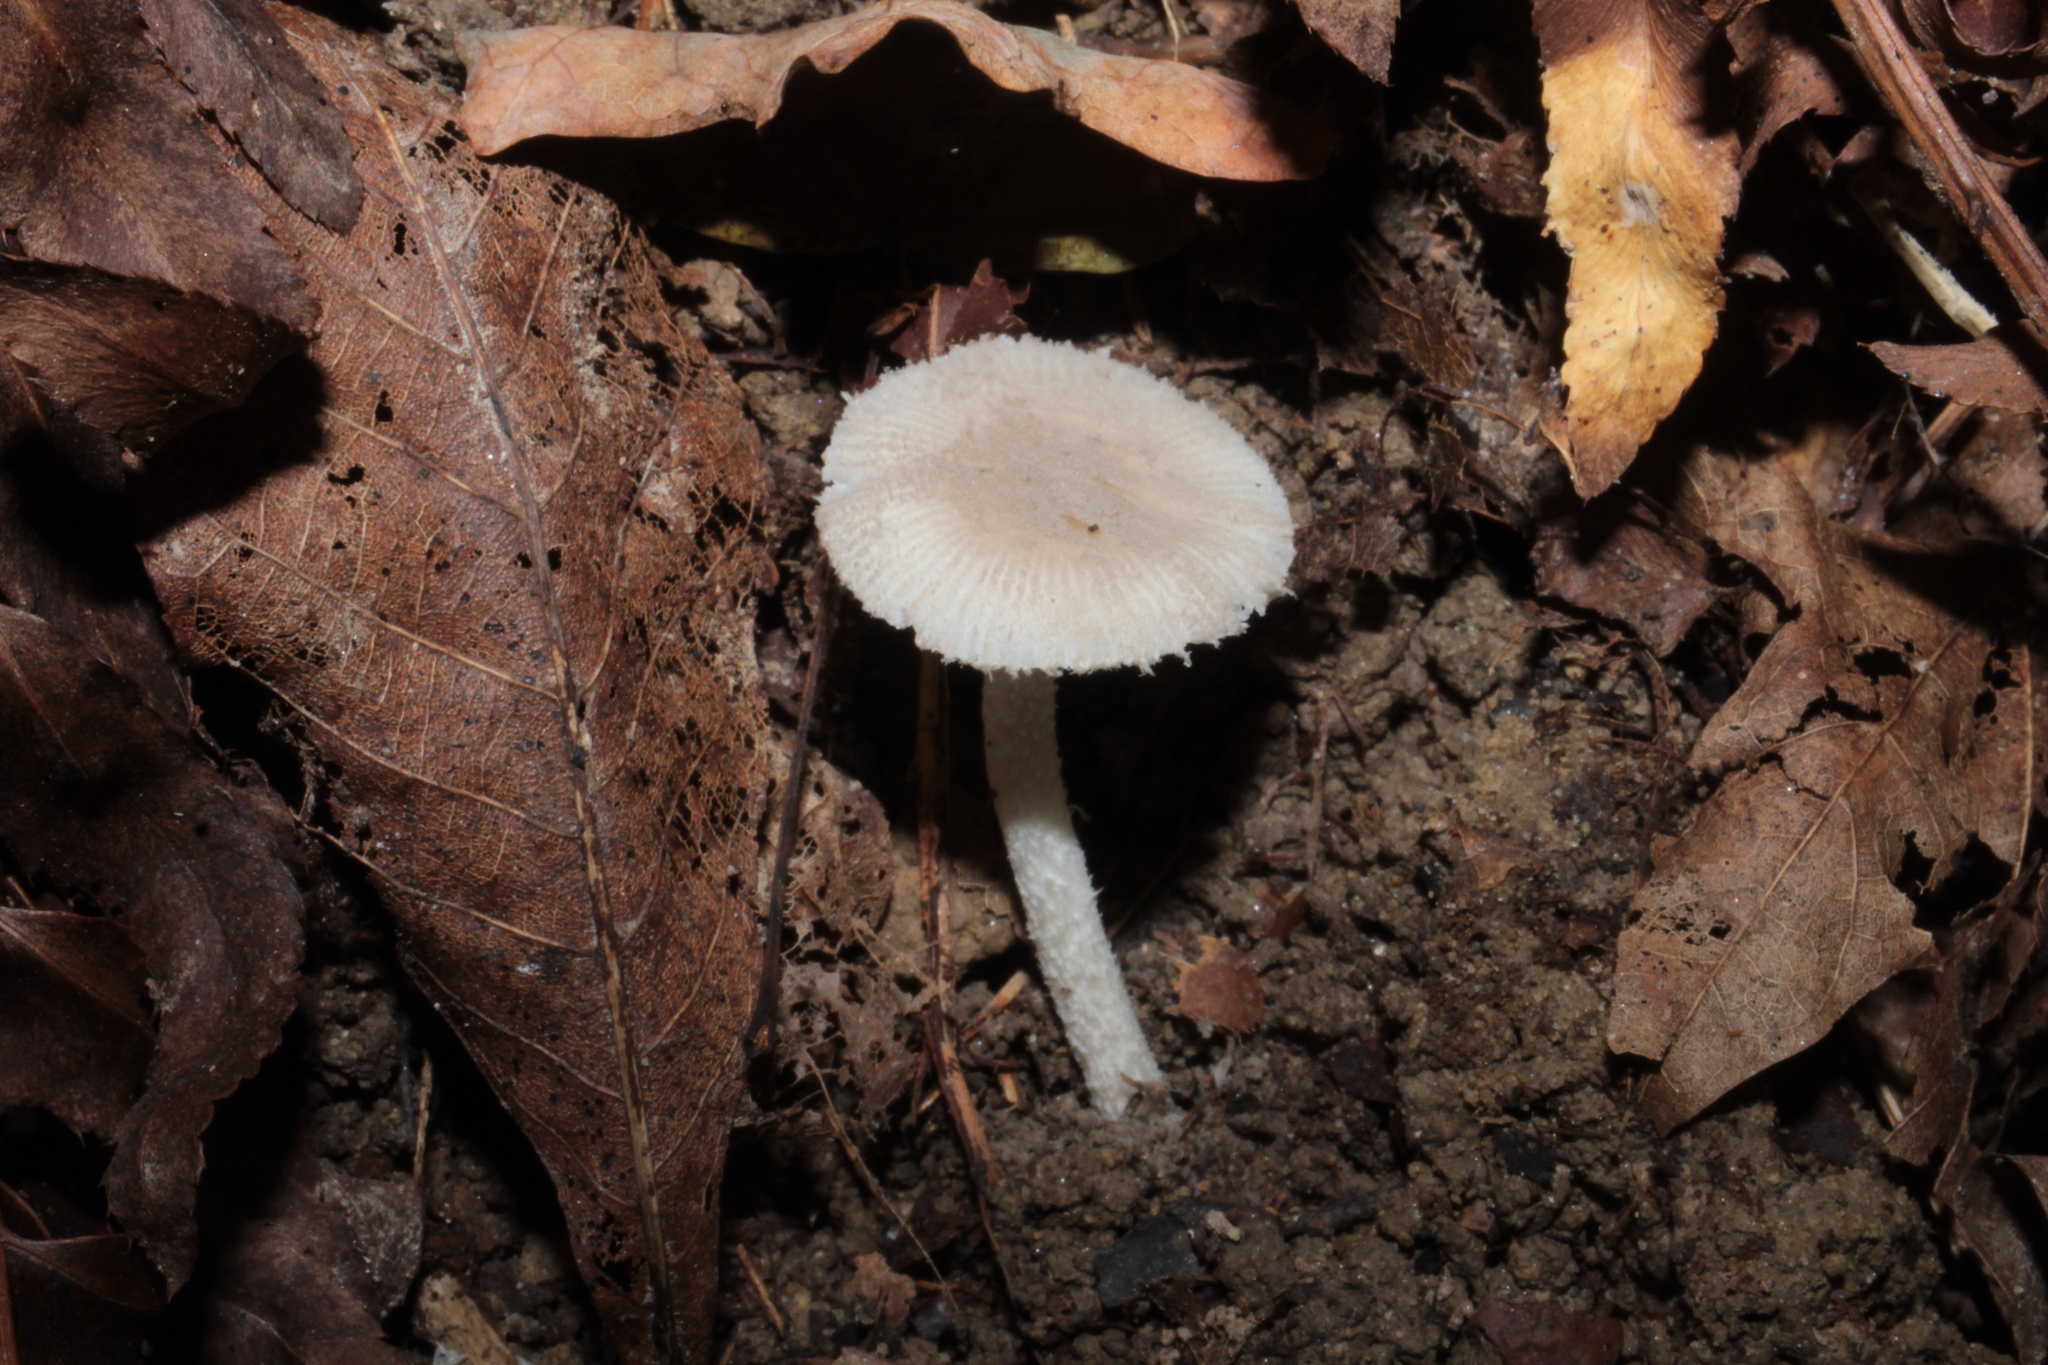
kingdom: Fungi
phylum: Basidiomycota
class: Agaricomycetes
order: Agaricales
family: Amanitaceae
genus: Amanita
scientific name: Amanita farinosa
